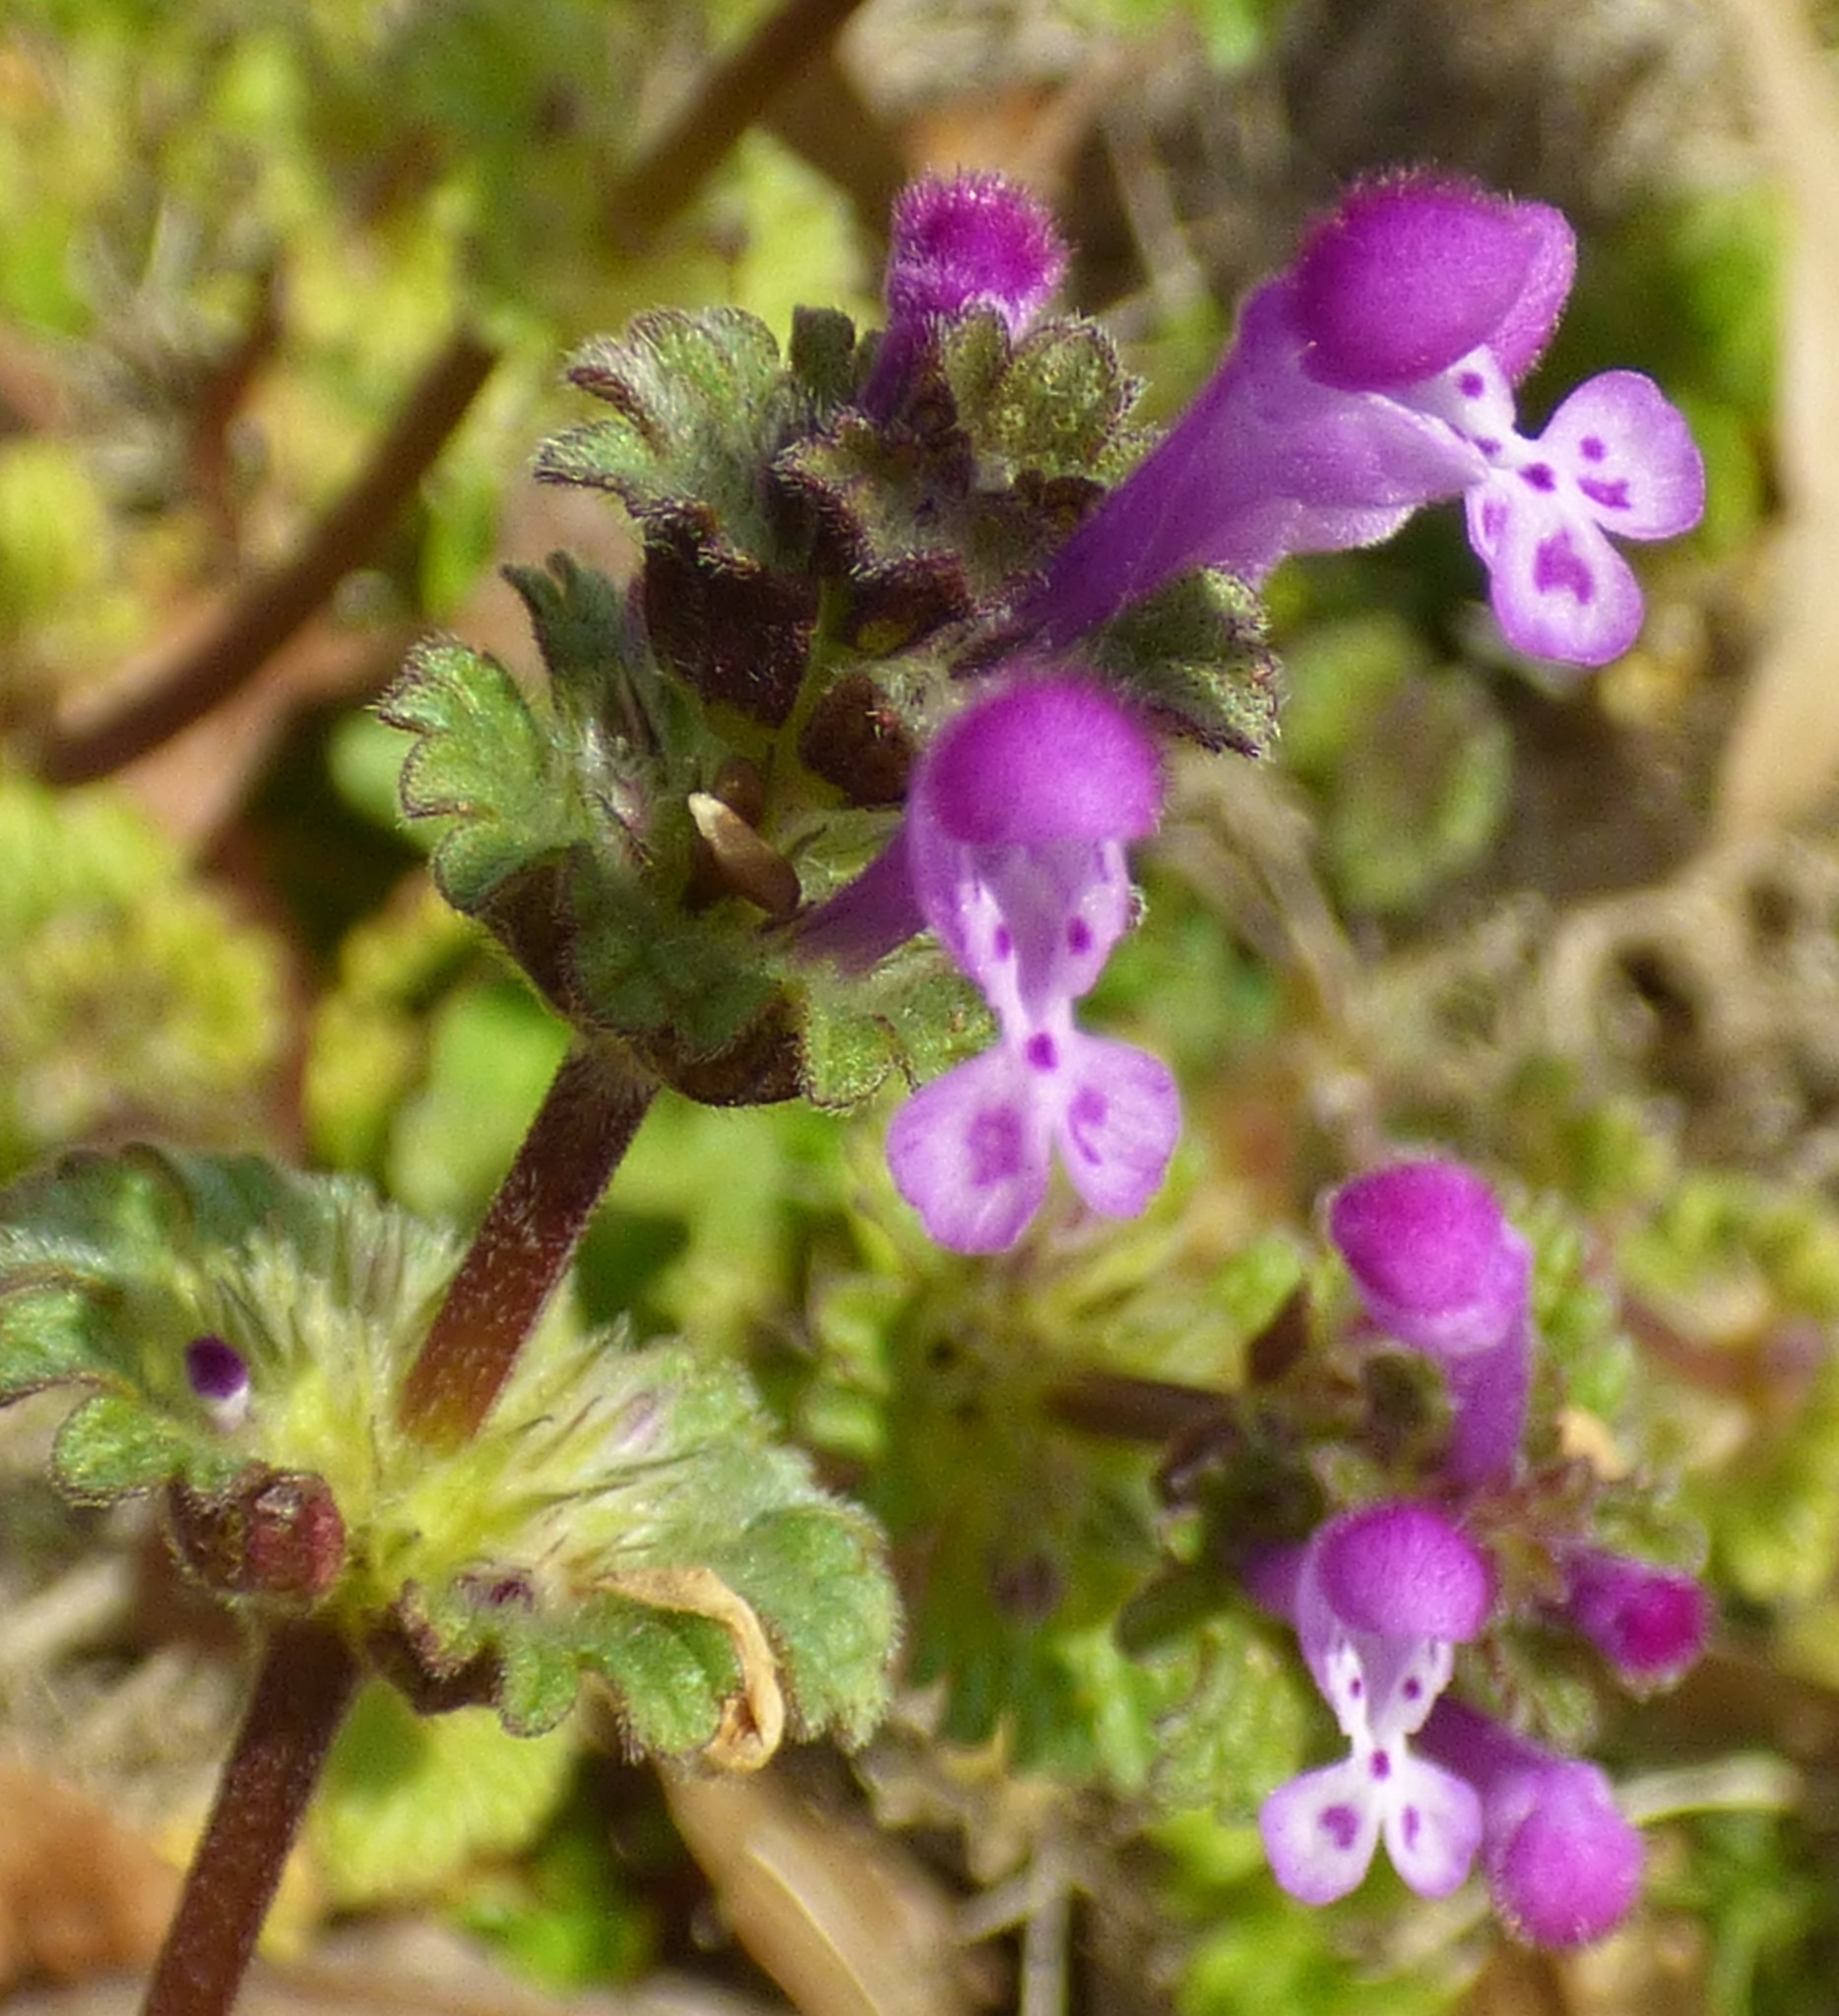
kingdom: Plantae
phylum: Tracheophyta
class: Magnoliopsida
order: Lamiales
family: Lamiaceae
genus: Lamium
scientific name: Lamium amplexicaule
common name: Henbit dead-nettle
